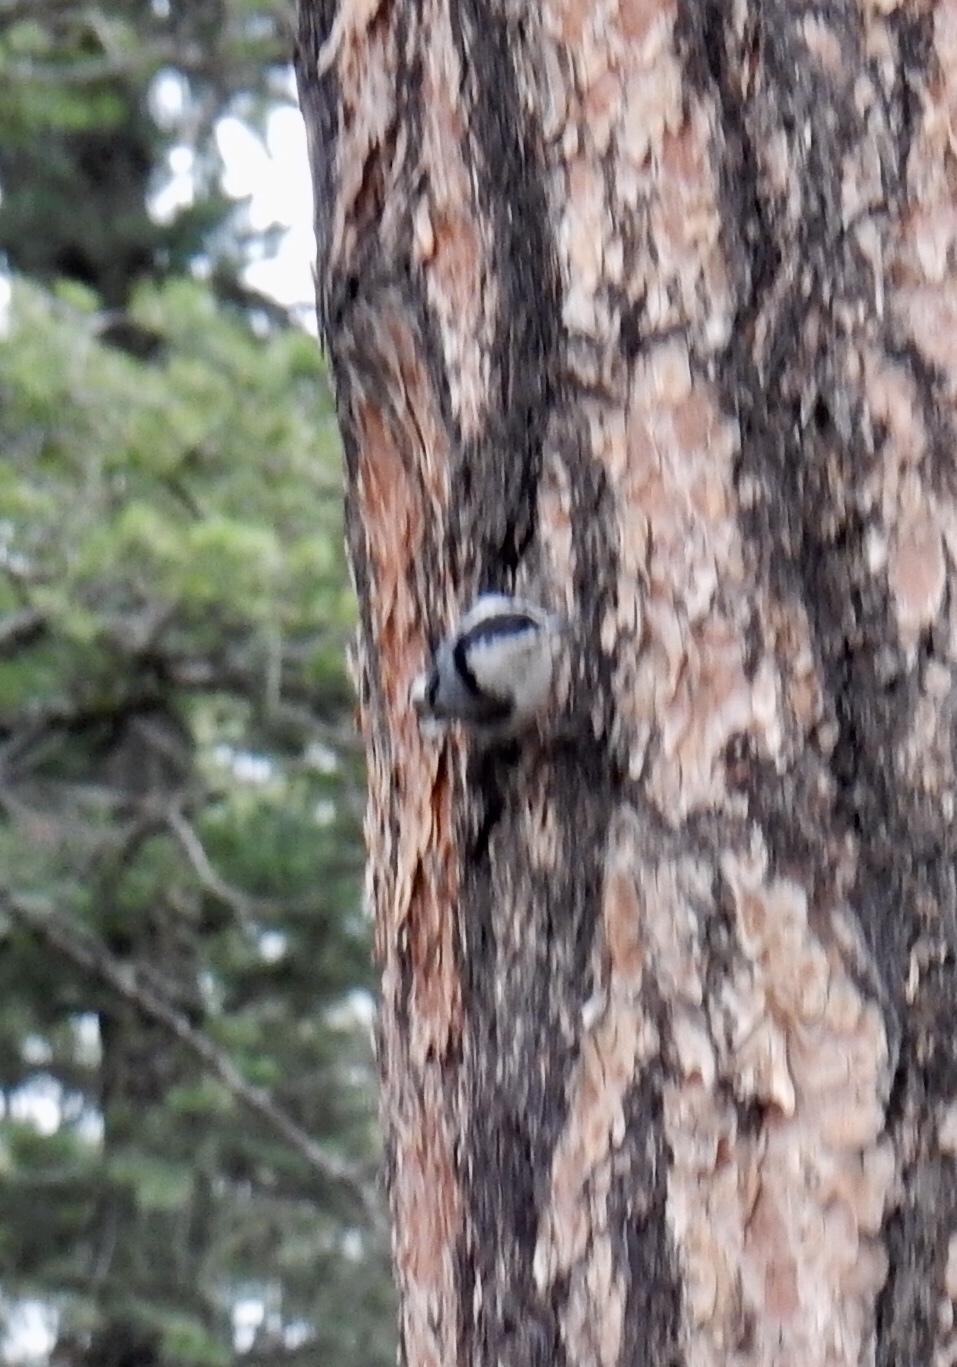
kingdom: Animalia
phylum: Chordata
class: Aves
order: Passeriformes
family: Sittidae
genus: Sitta
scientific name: Sitta carolinensis
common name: White-breasted nuthatch
